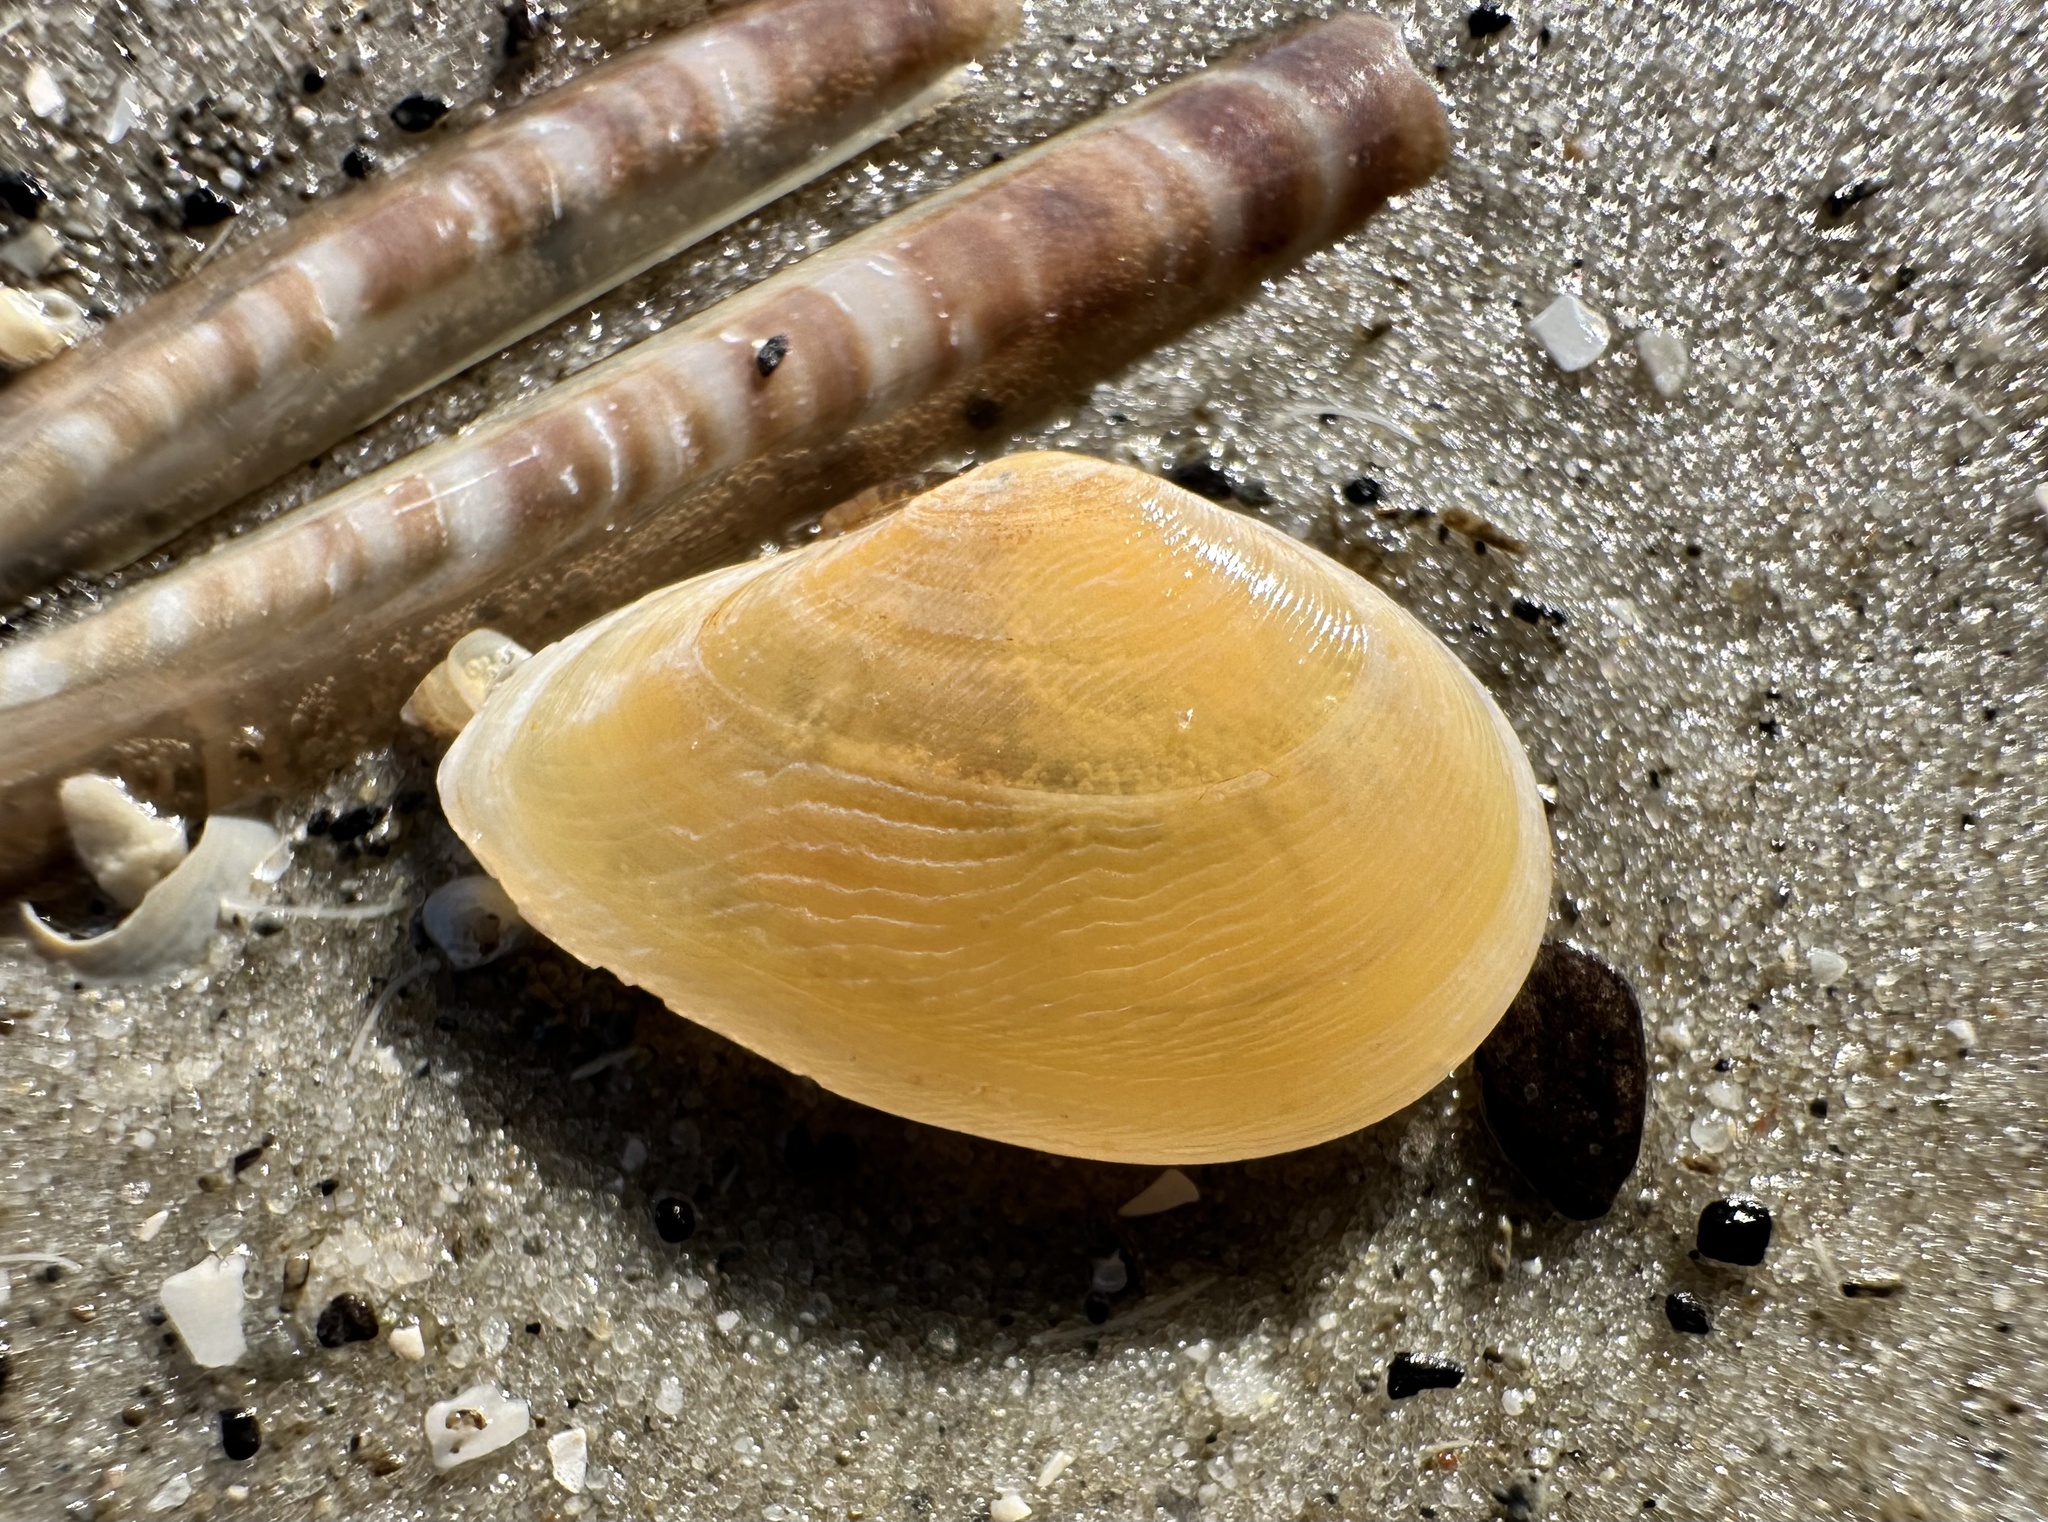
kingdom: Animalia
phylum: Mollusca
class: Bivalvia
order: Cardiida
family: Tellinidae
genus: Fabulina
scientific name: Fabulina fabula
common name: Bean-like tellin
